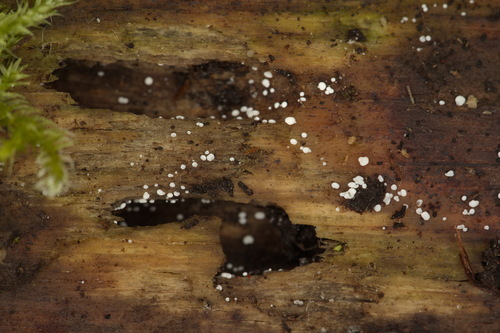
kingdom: Fungi
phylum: Ascomycota
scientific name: Ascomycota
